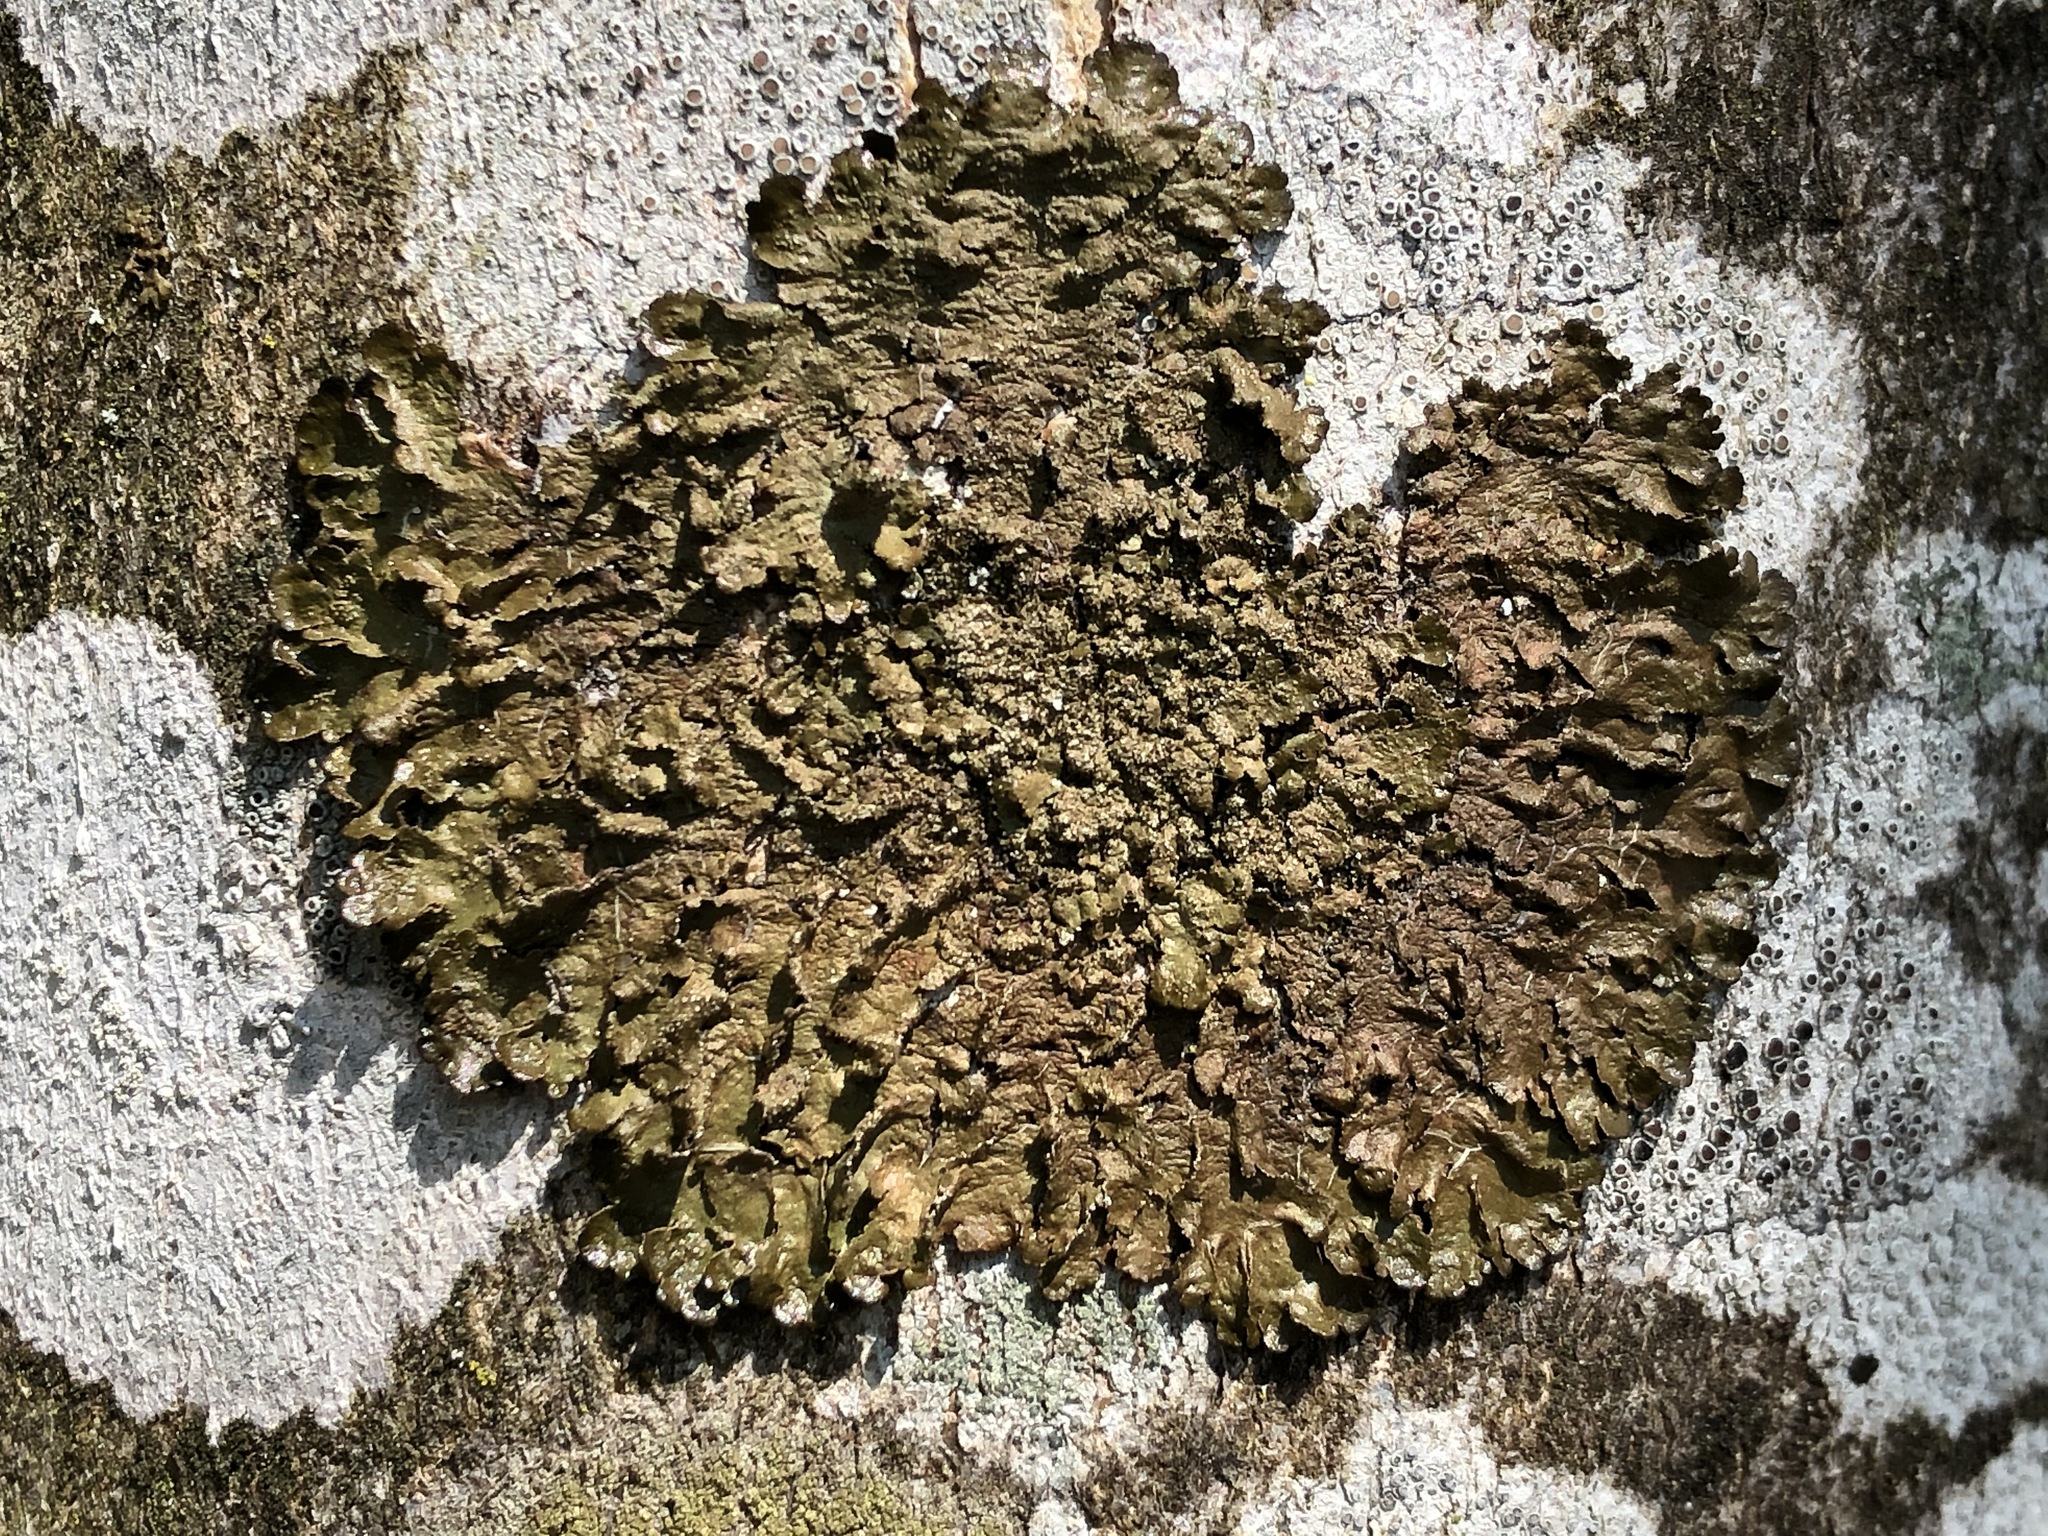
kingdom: Fungi
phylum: Ascomycota
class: Lecanoromycetes
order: Lecanorales
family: Parmeliaceae
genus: Melanelixia
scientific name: Melanelixia glabratula
